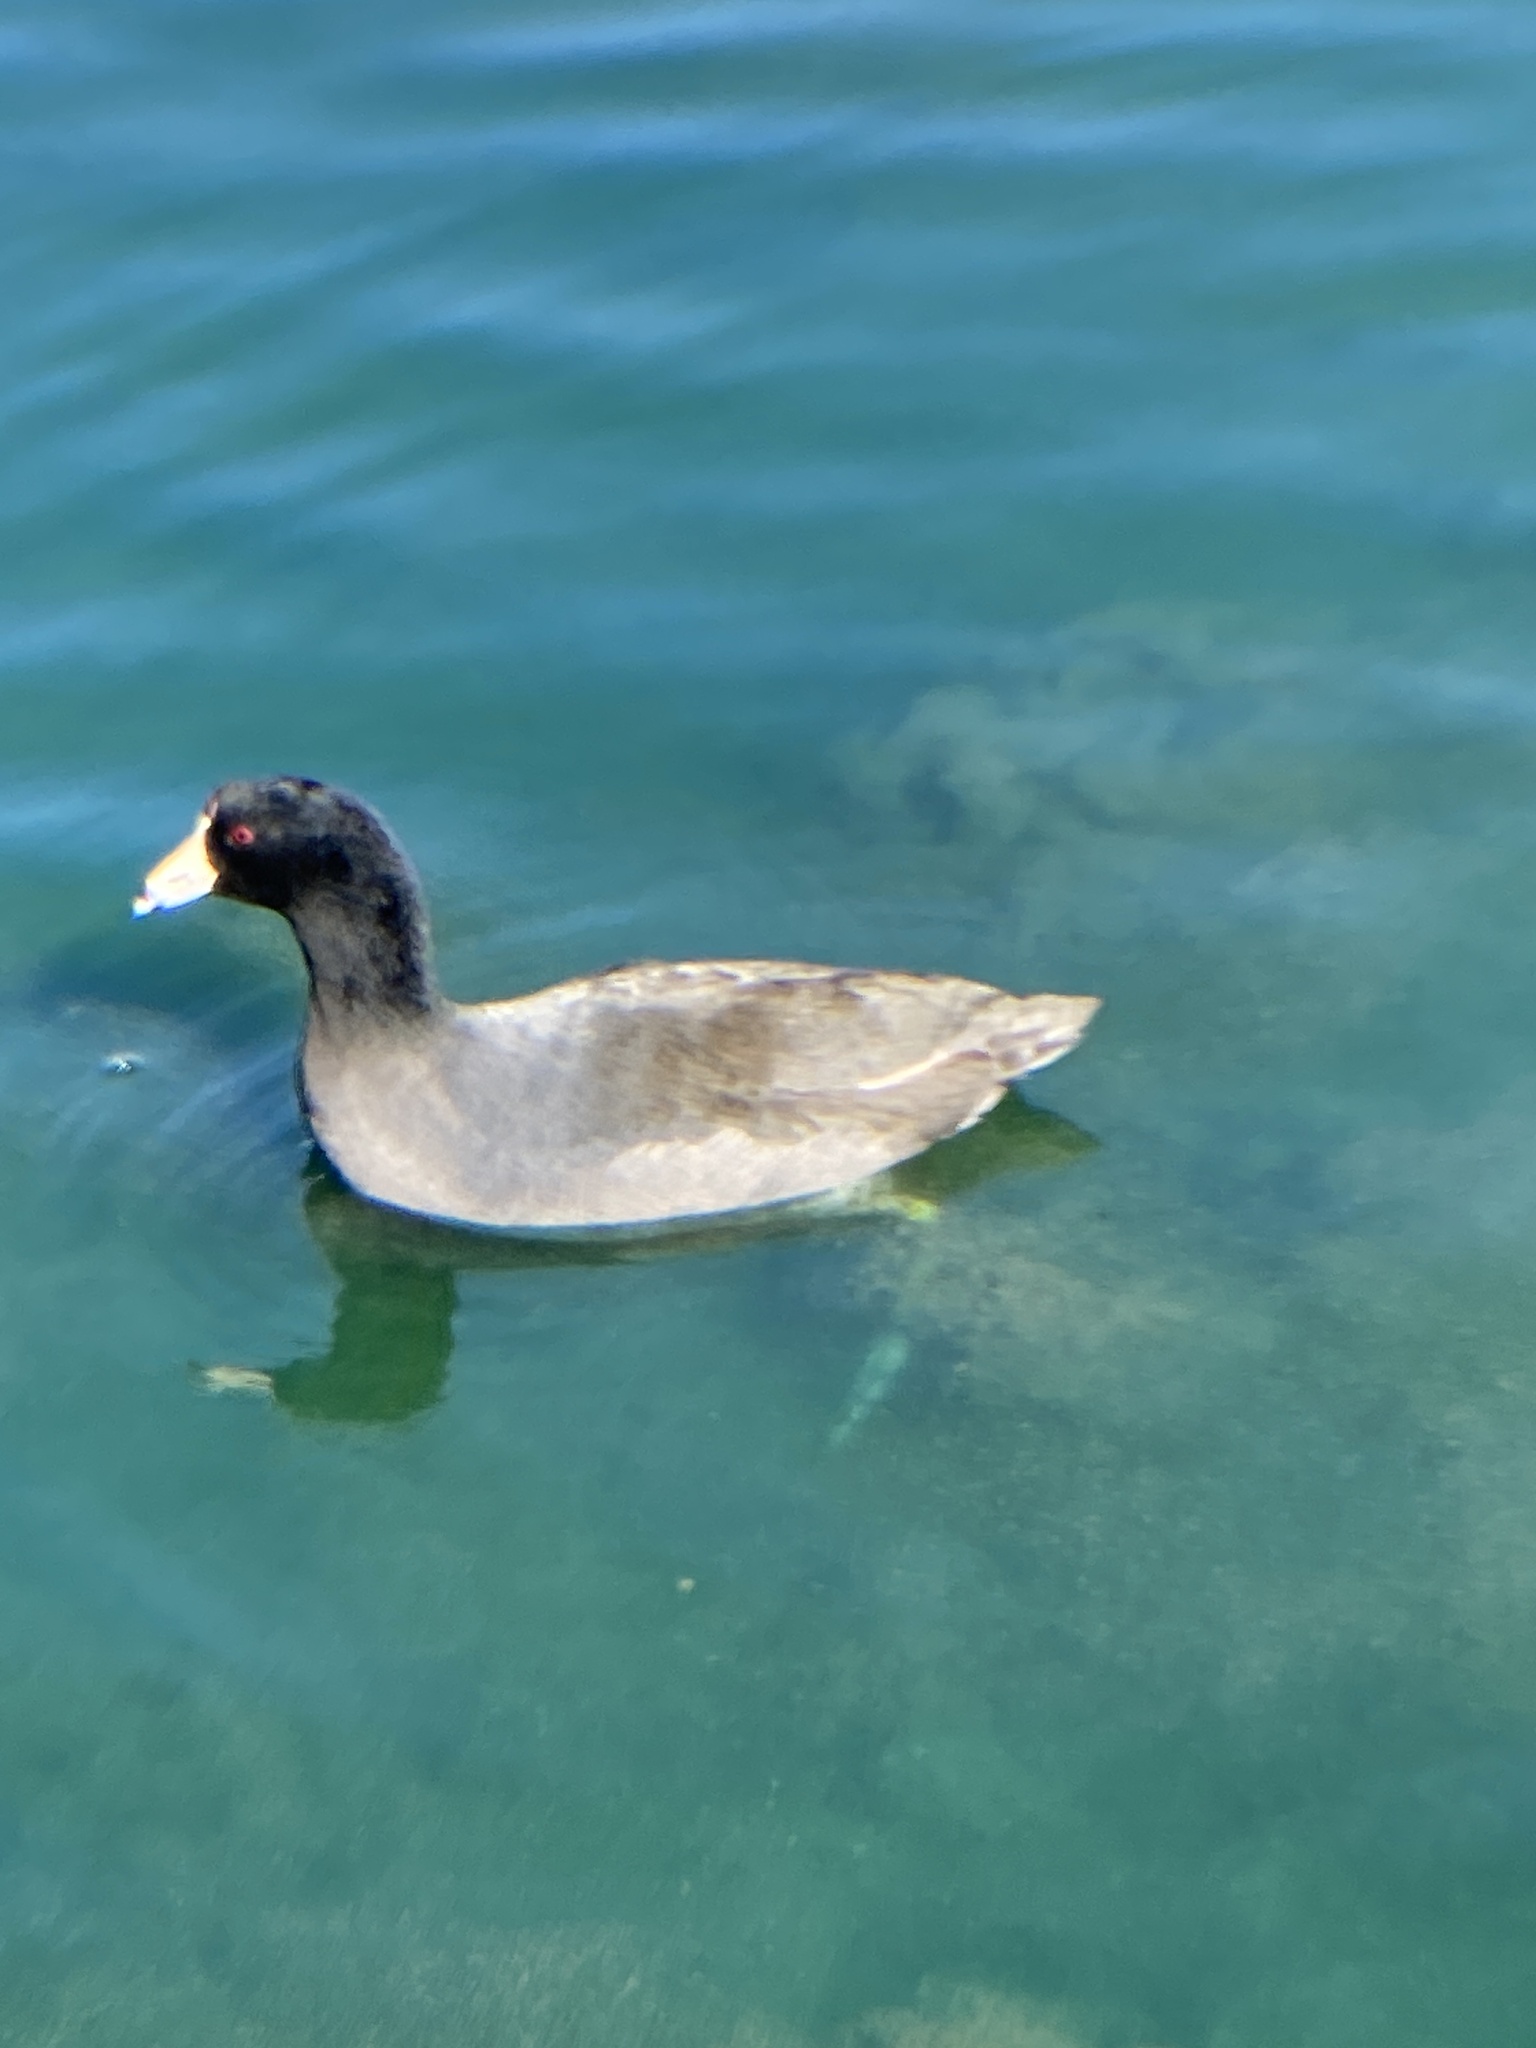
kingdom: Animalia
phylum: Chordata
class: Aves
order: Gruiformes
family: Rallidae
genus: Fulica
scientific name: Fulica americana
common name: American coot
